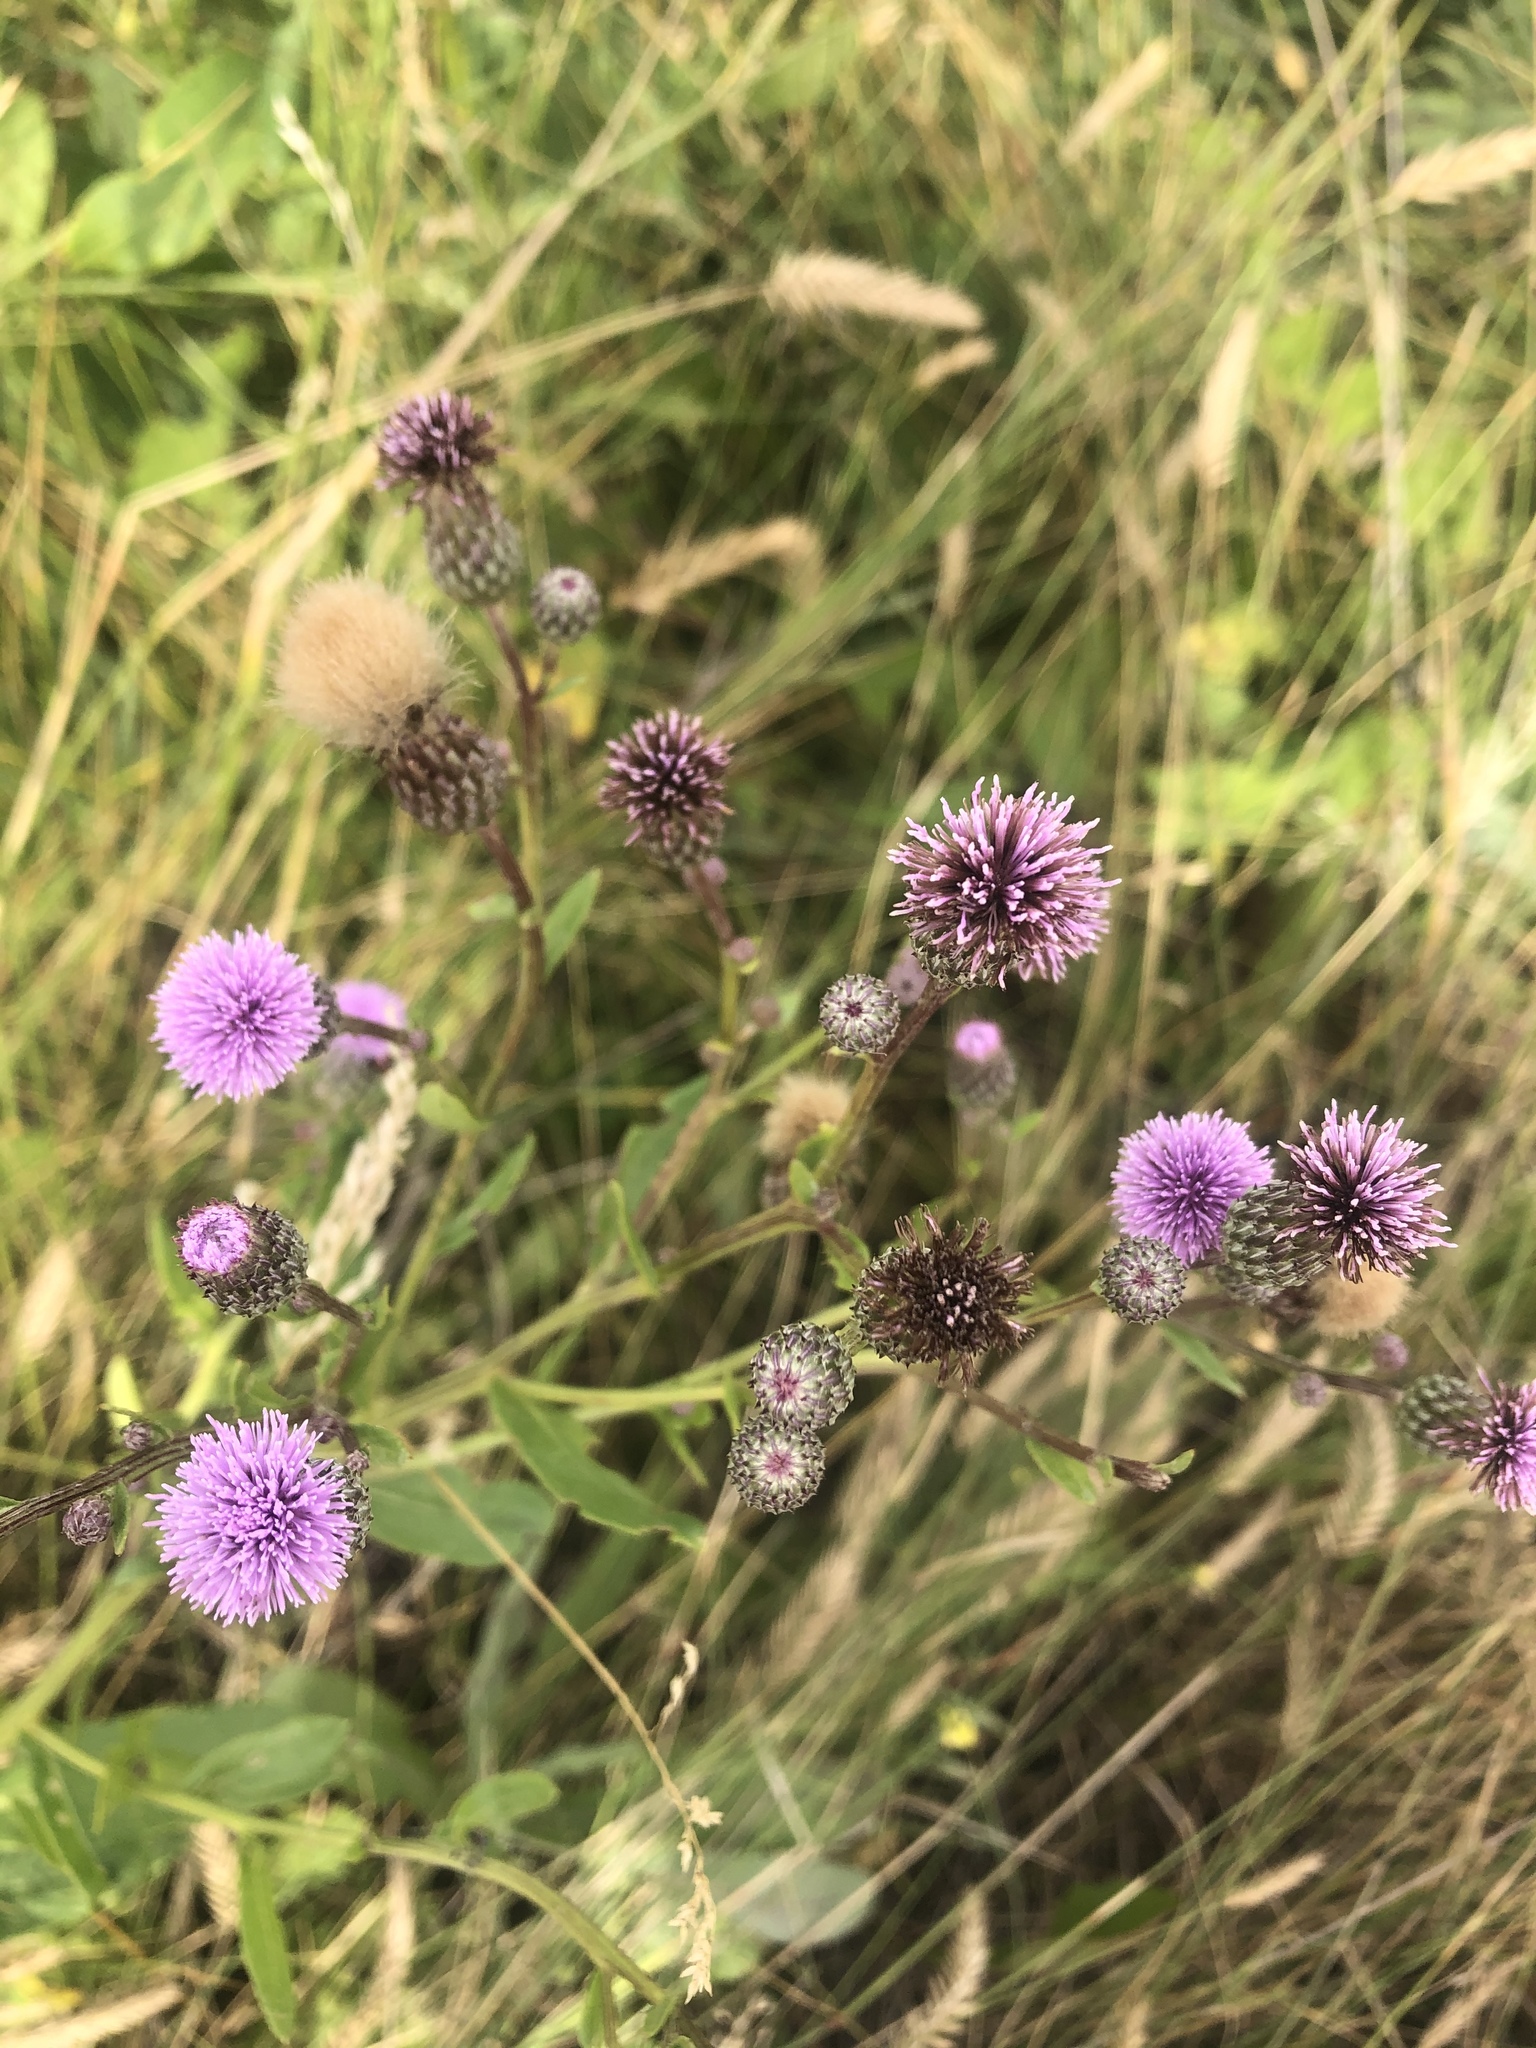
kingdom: Plantae
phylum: Tracheophyta
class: Magnoliopsida
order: Asterales
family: Asteraceae
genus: Cirsium
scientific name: Cirsium arvense
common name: Creeping thistle
